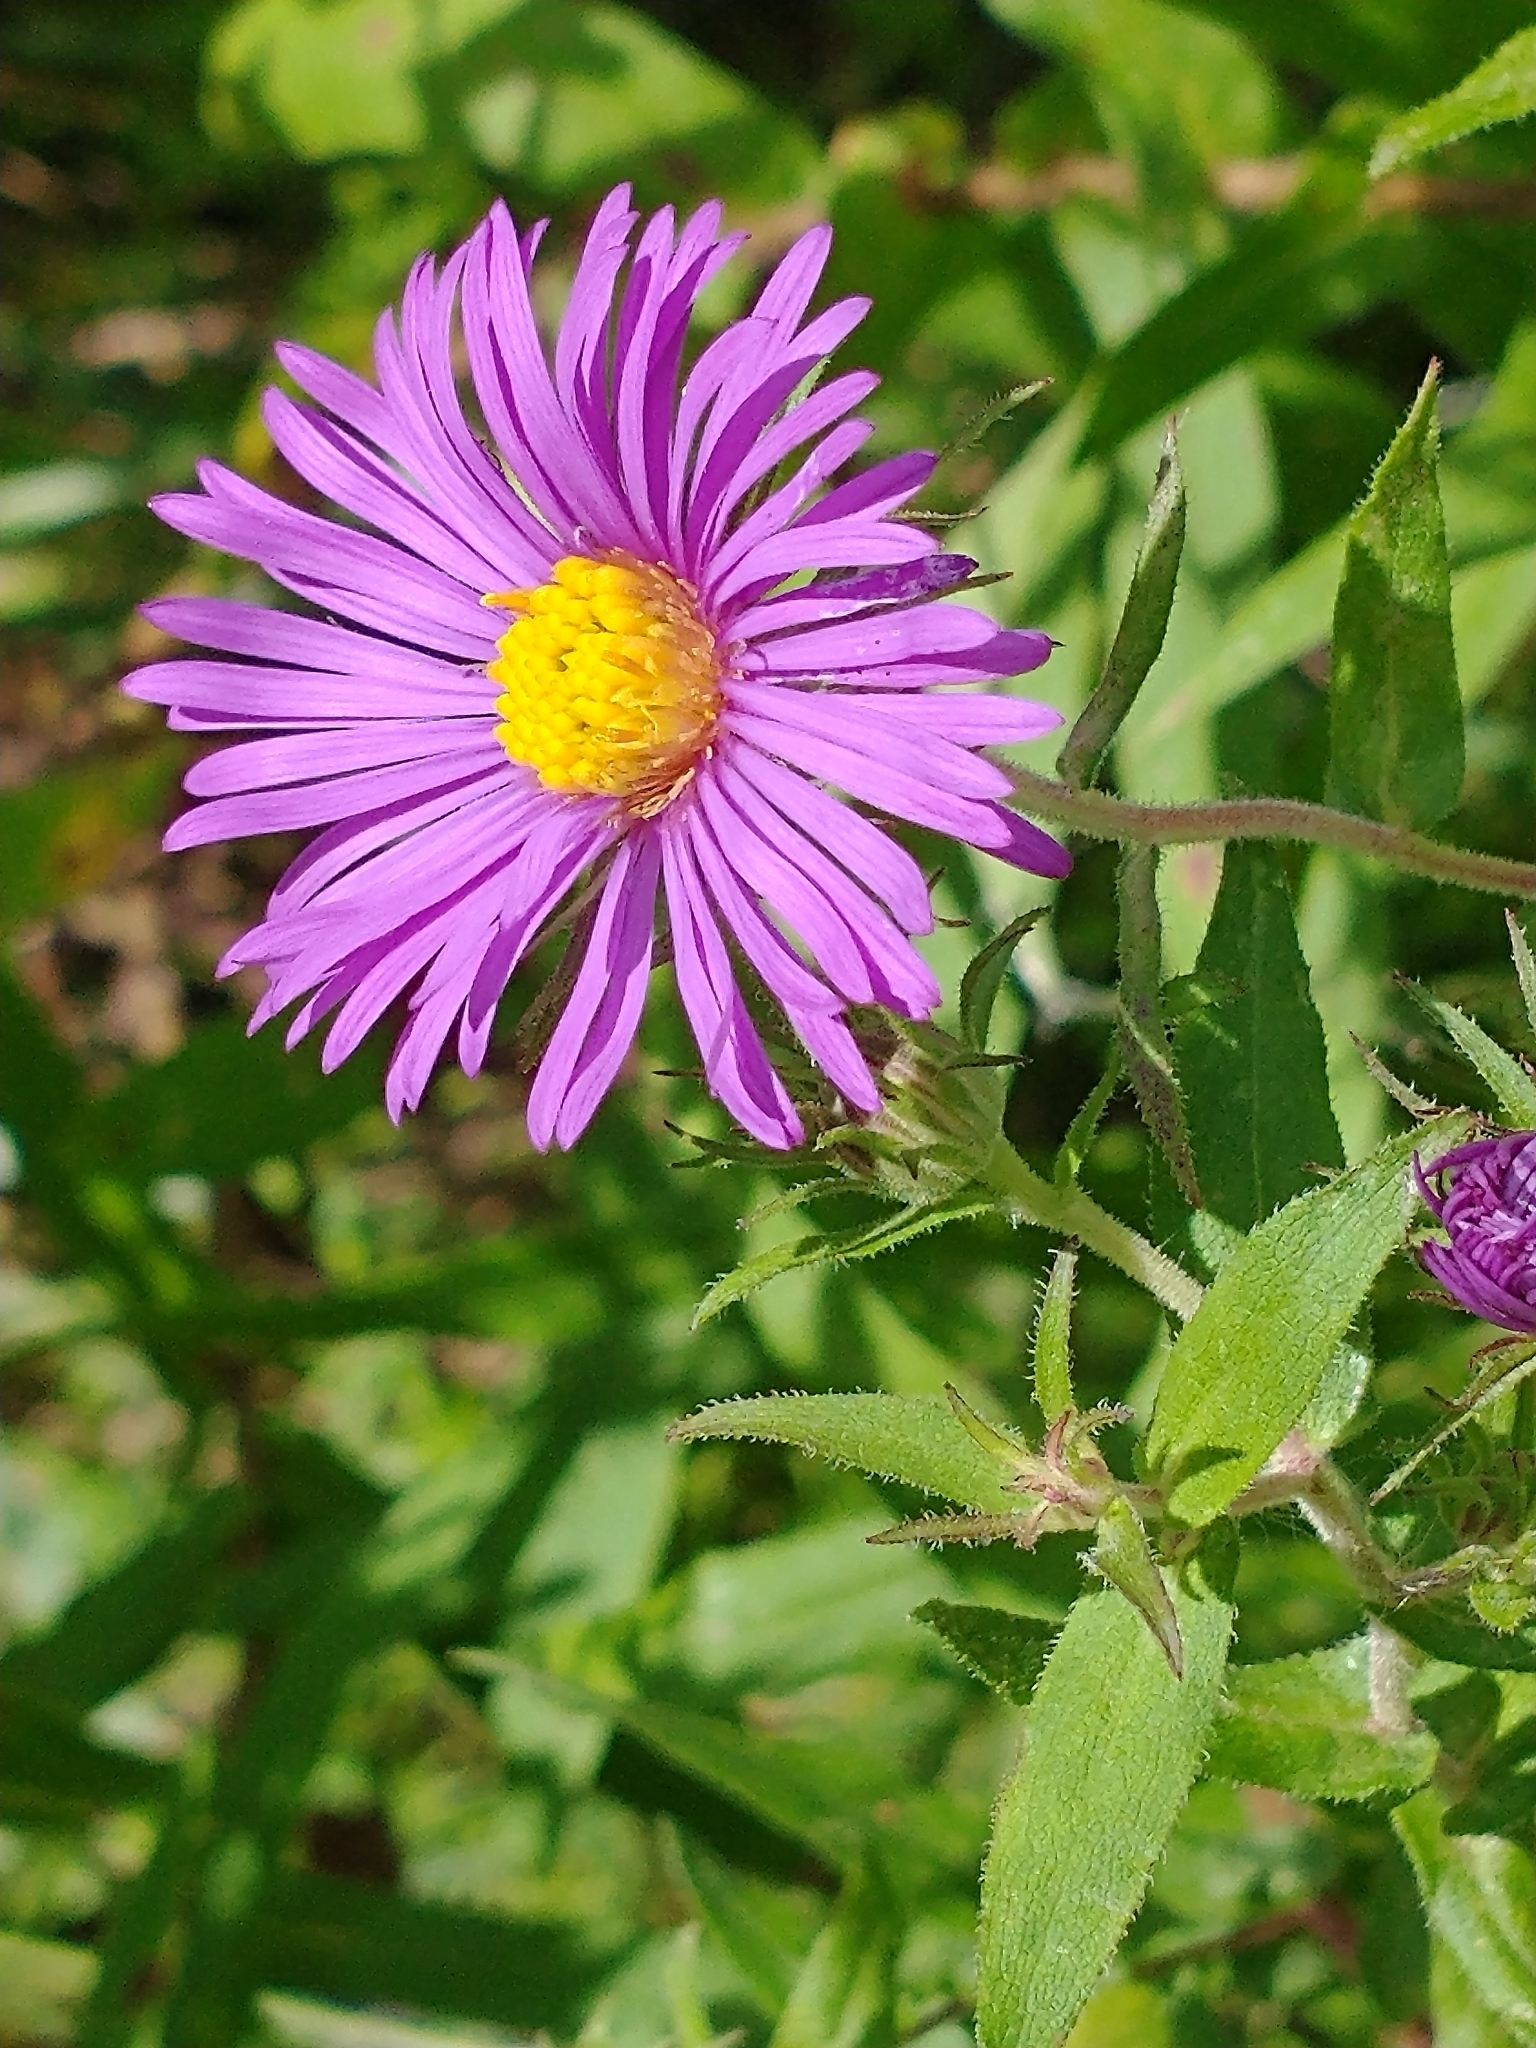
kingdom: Plantae
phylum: Tracheophyta
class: Magnoliopsida
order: Asterales
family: Asteraceae
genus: Symphyotrichum
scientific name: Symphyotrichum novae-angliae
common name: Michaelmas daisy
